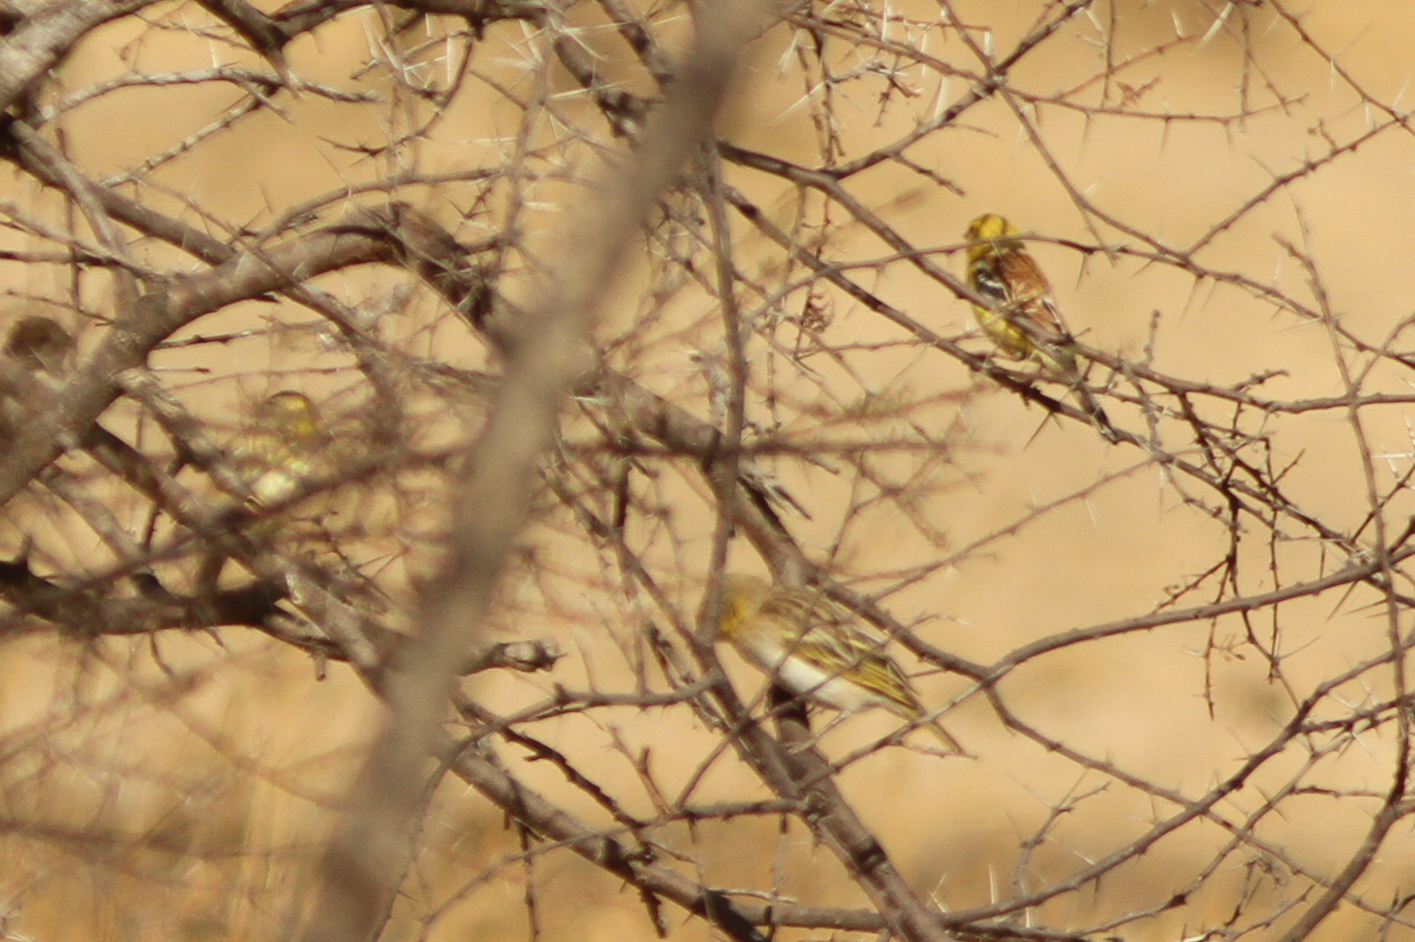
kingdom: Animalia
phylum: Chordata
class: Aves
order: Passeriformes
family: Passeridae
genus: Passer
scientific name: Passer luteus
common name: Sudan golden sparrow
